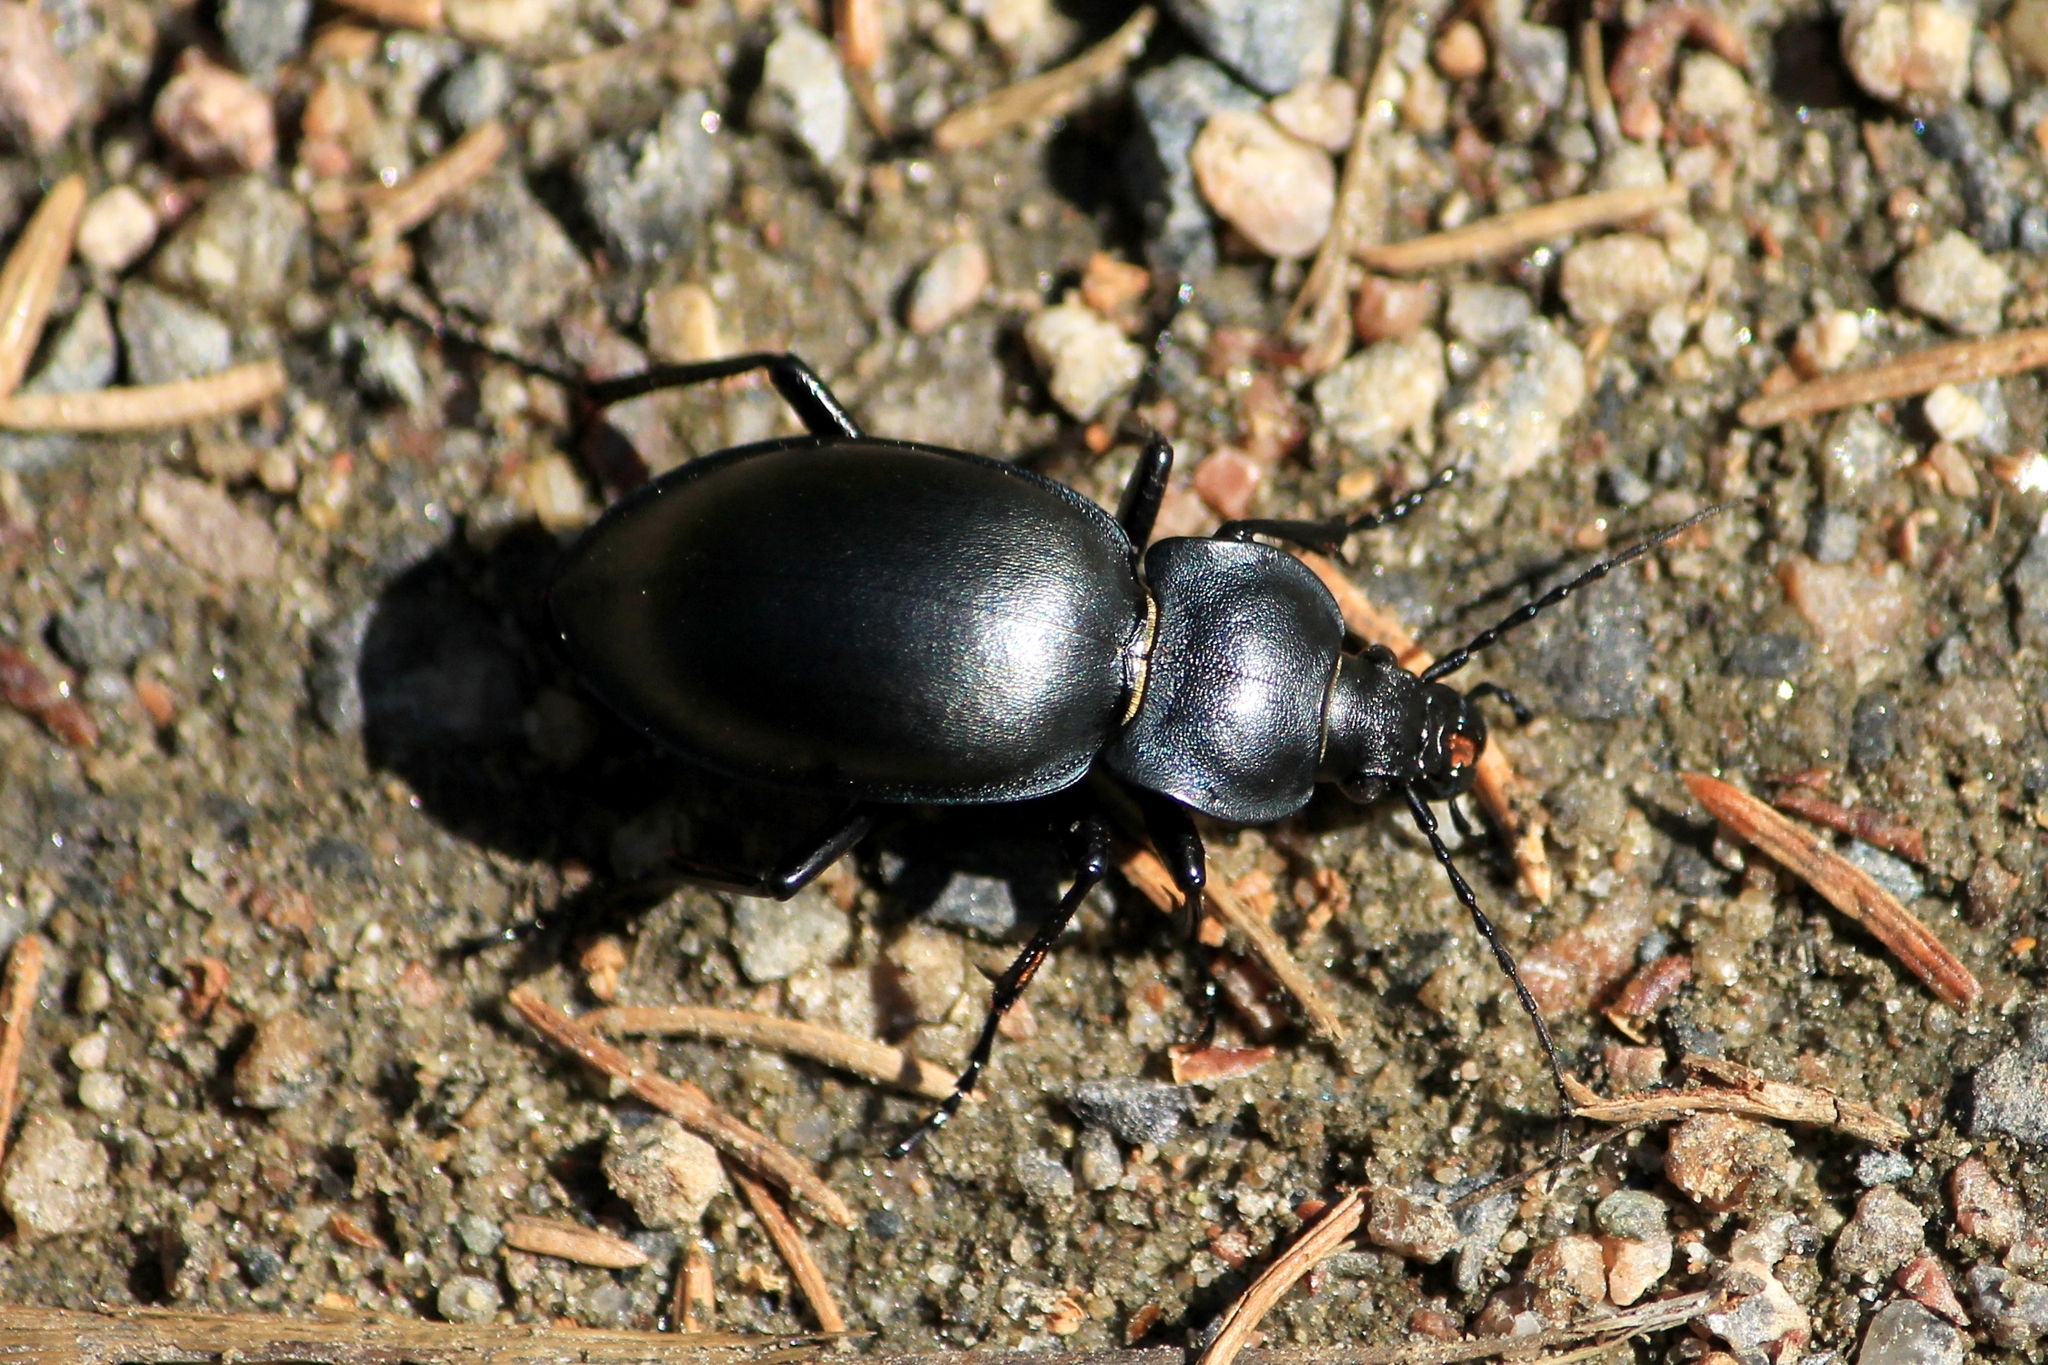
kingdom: Animalia
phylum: Arthropoda
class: Insecta
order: Coleoptera
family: Carabidae
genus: Carabus
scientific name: Carabus glabratus
